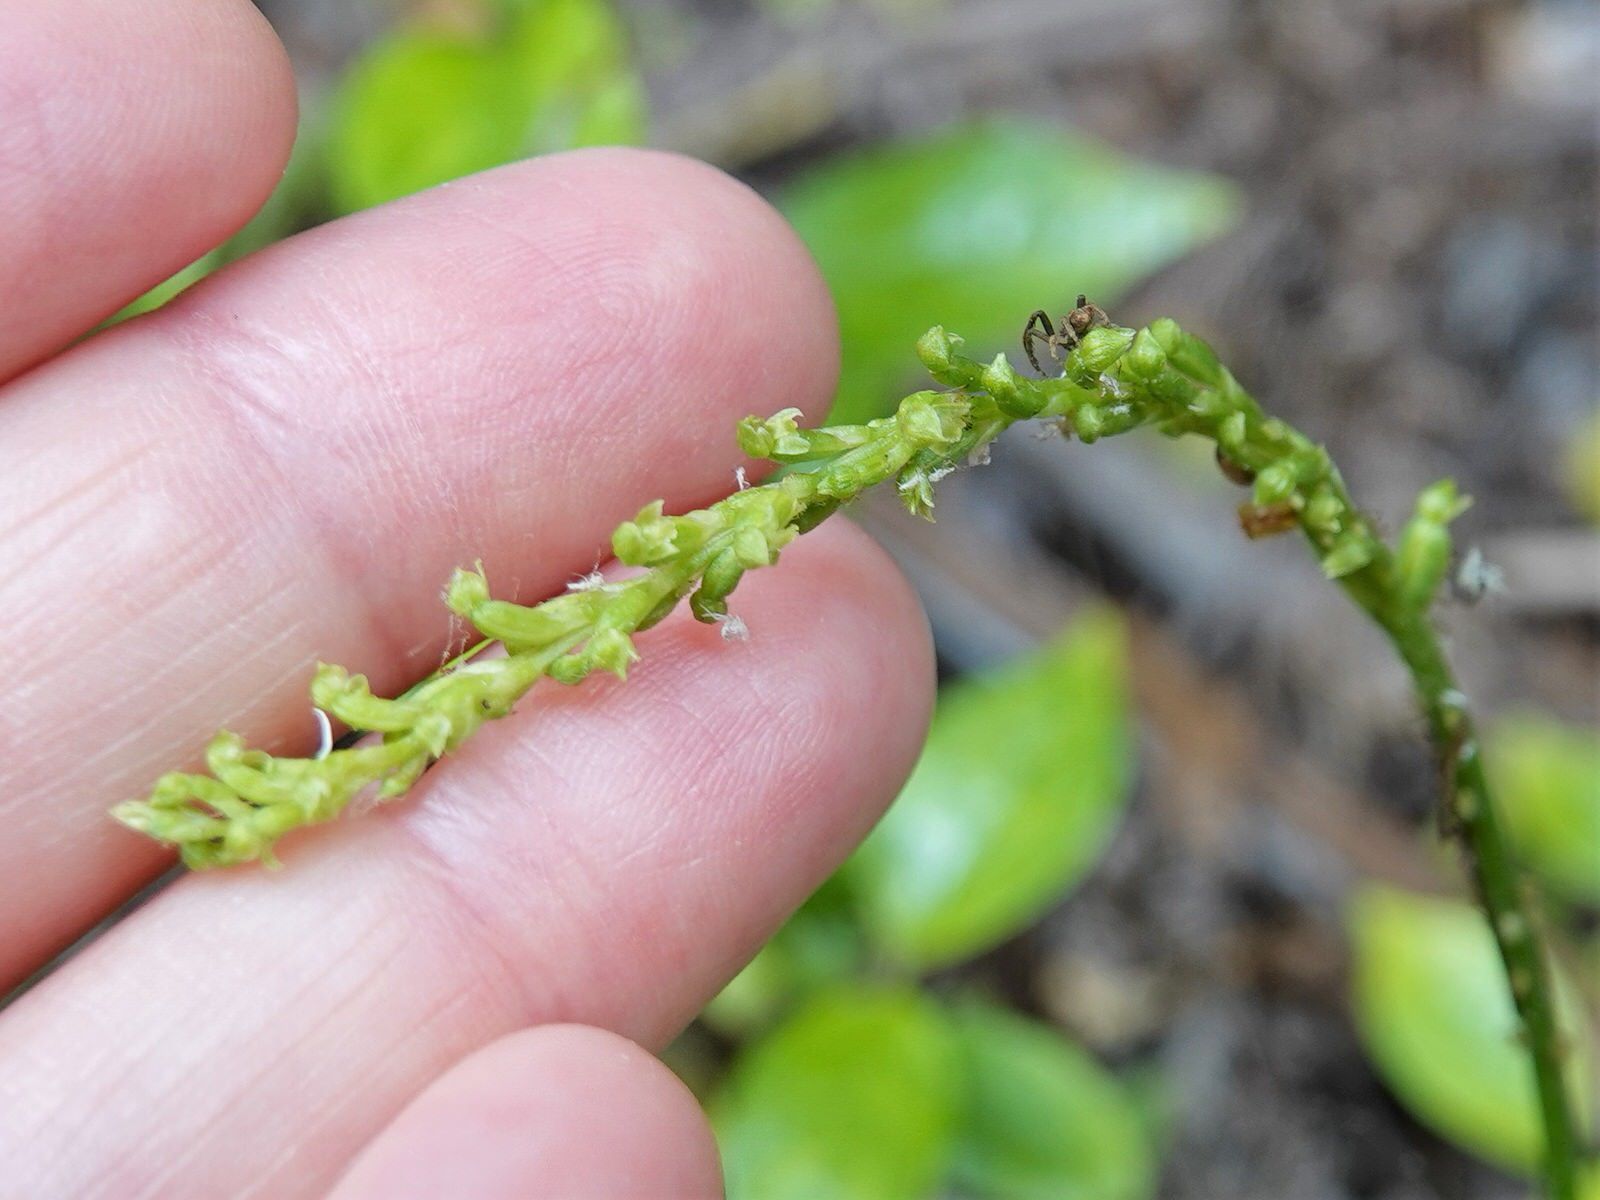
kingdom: Plantae
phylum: Tracheophyta
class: Liliopsida
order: Asparagales
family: Orchidaceae
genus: Microtis
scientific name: Microtis unifolia
